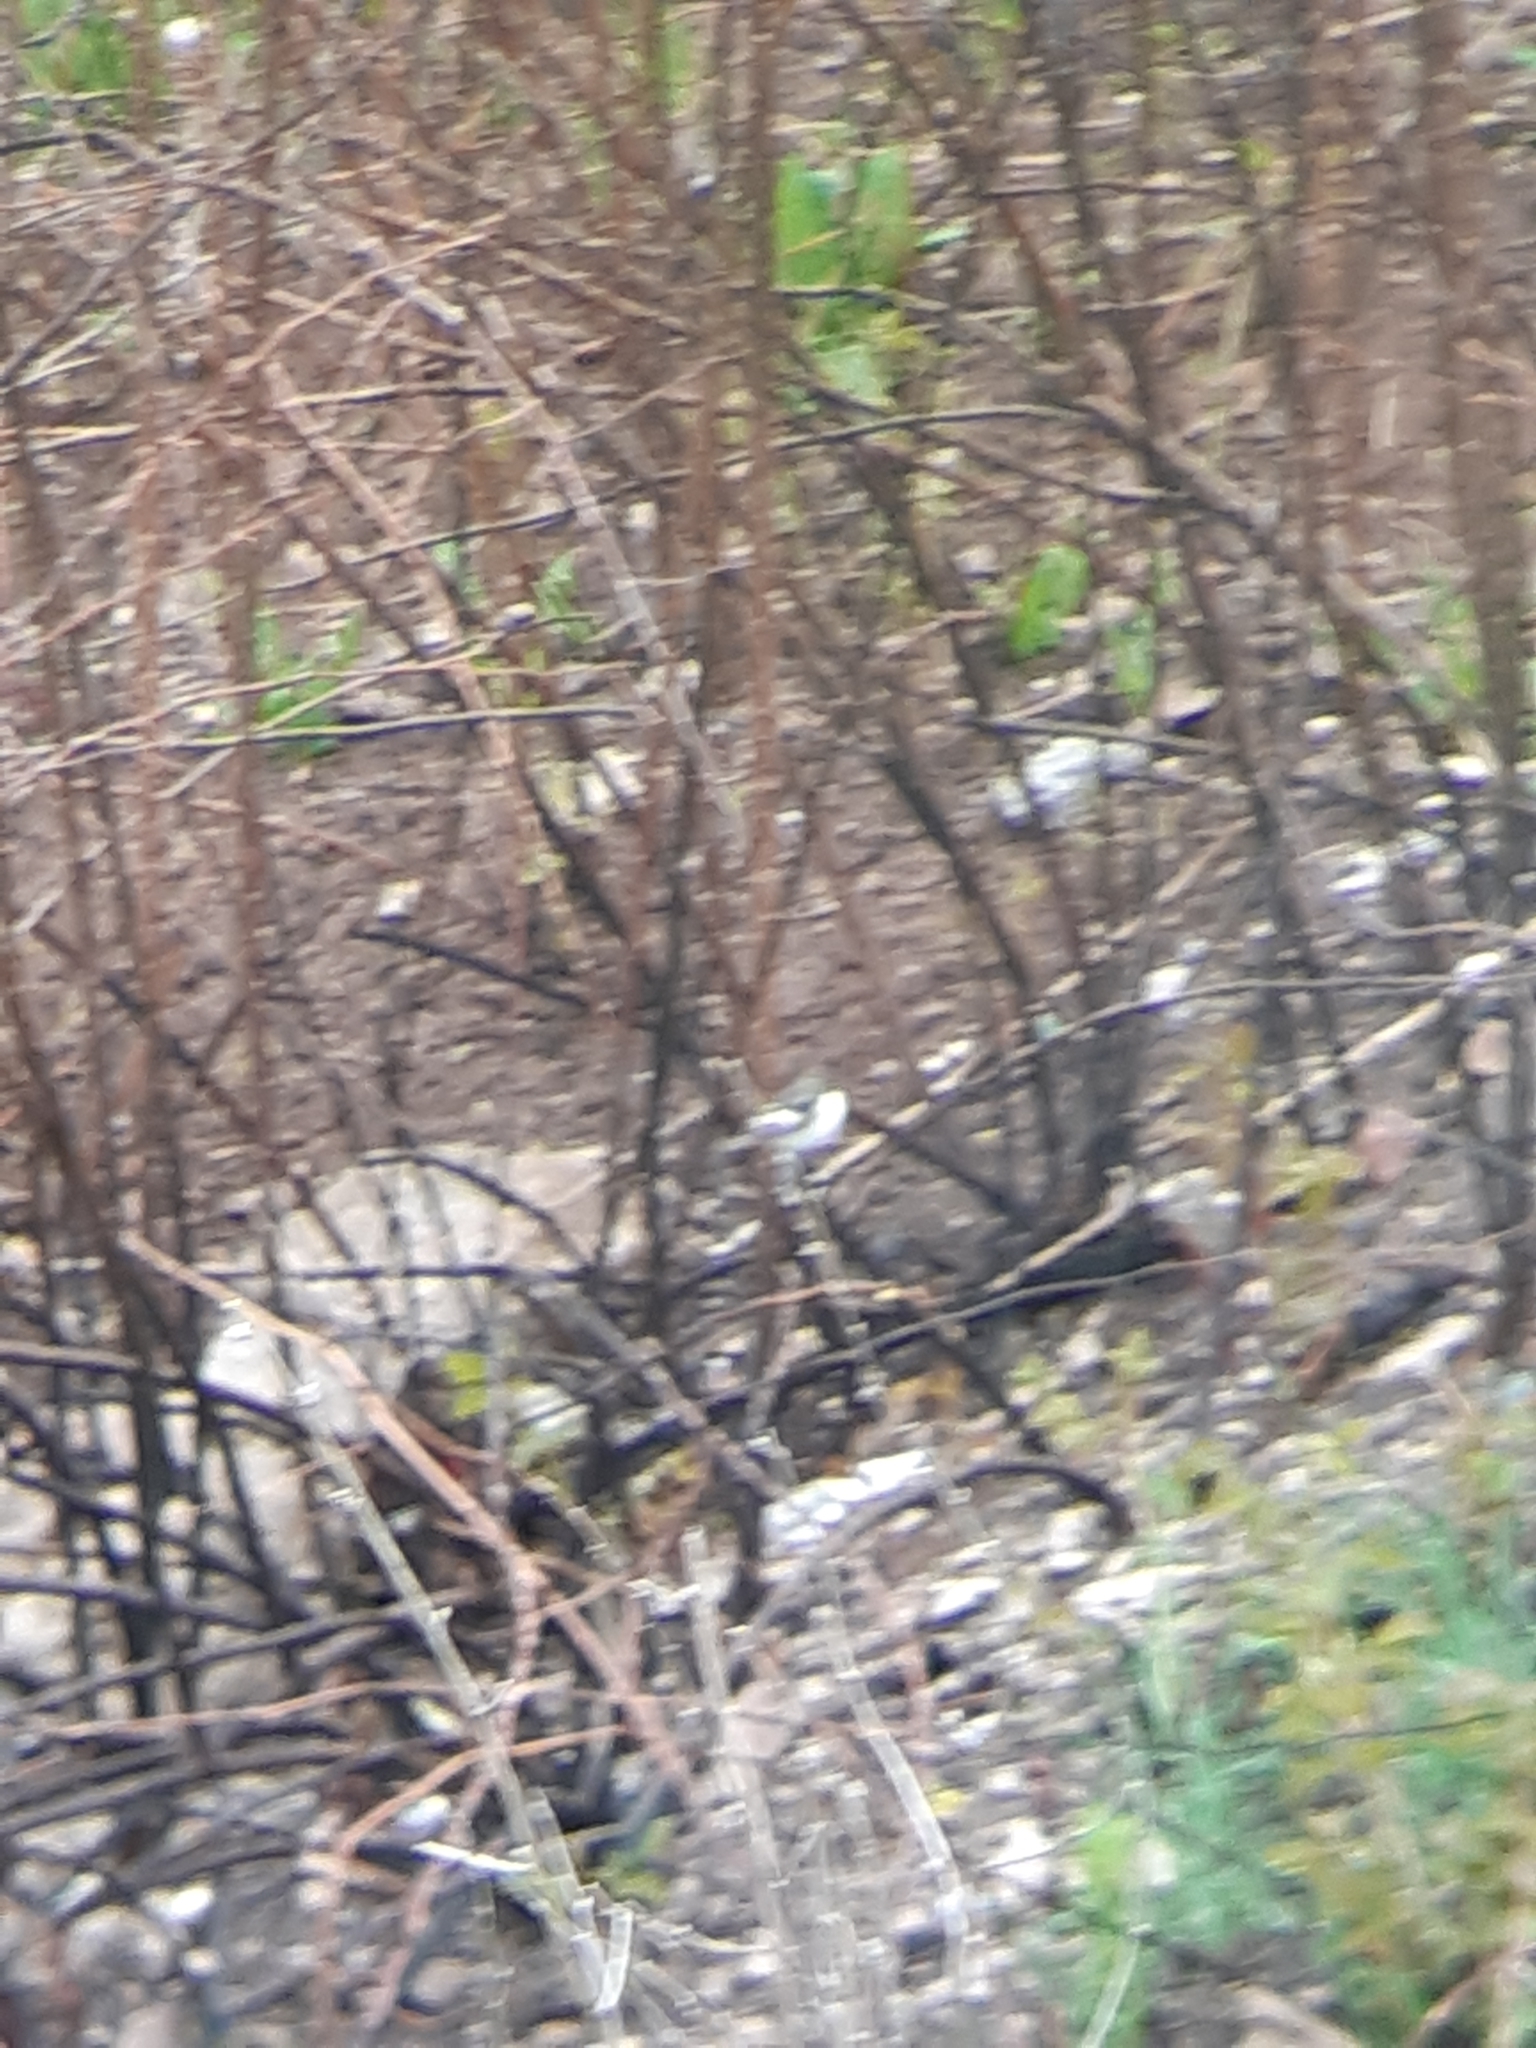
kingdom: Animalia
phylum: Chordata
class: Aves
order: Passeriformes
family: Muscicapidae
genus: Ficedula
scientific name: Ficedula hypoleuca
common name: European pied flycatcher
